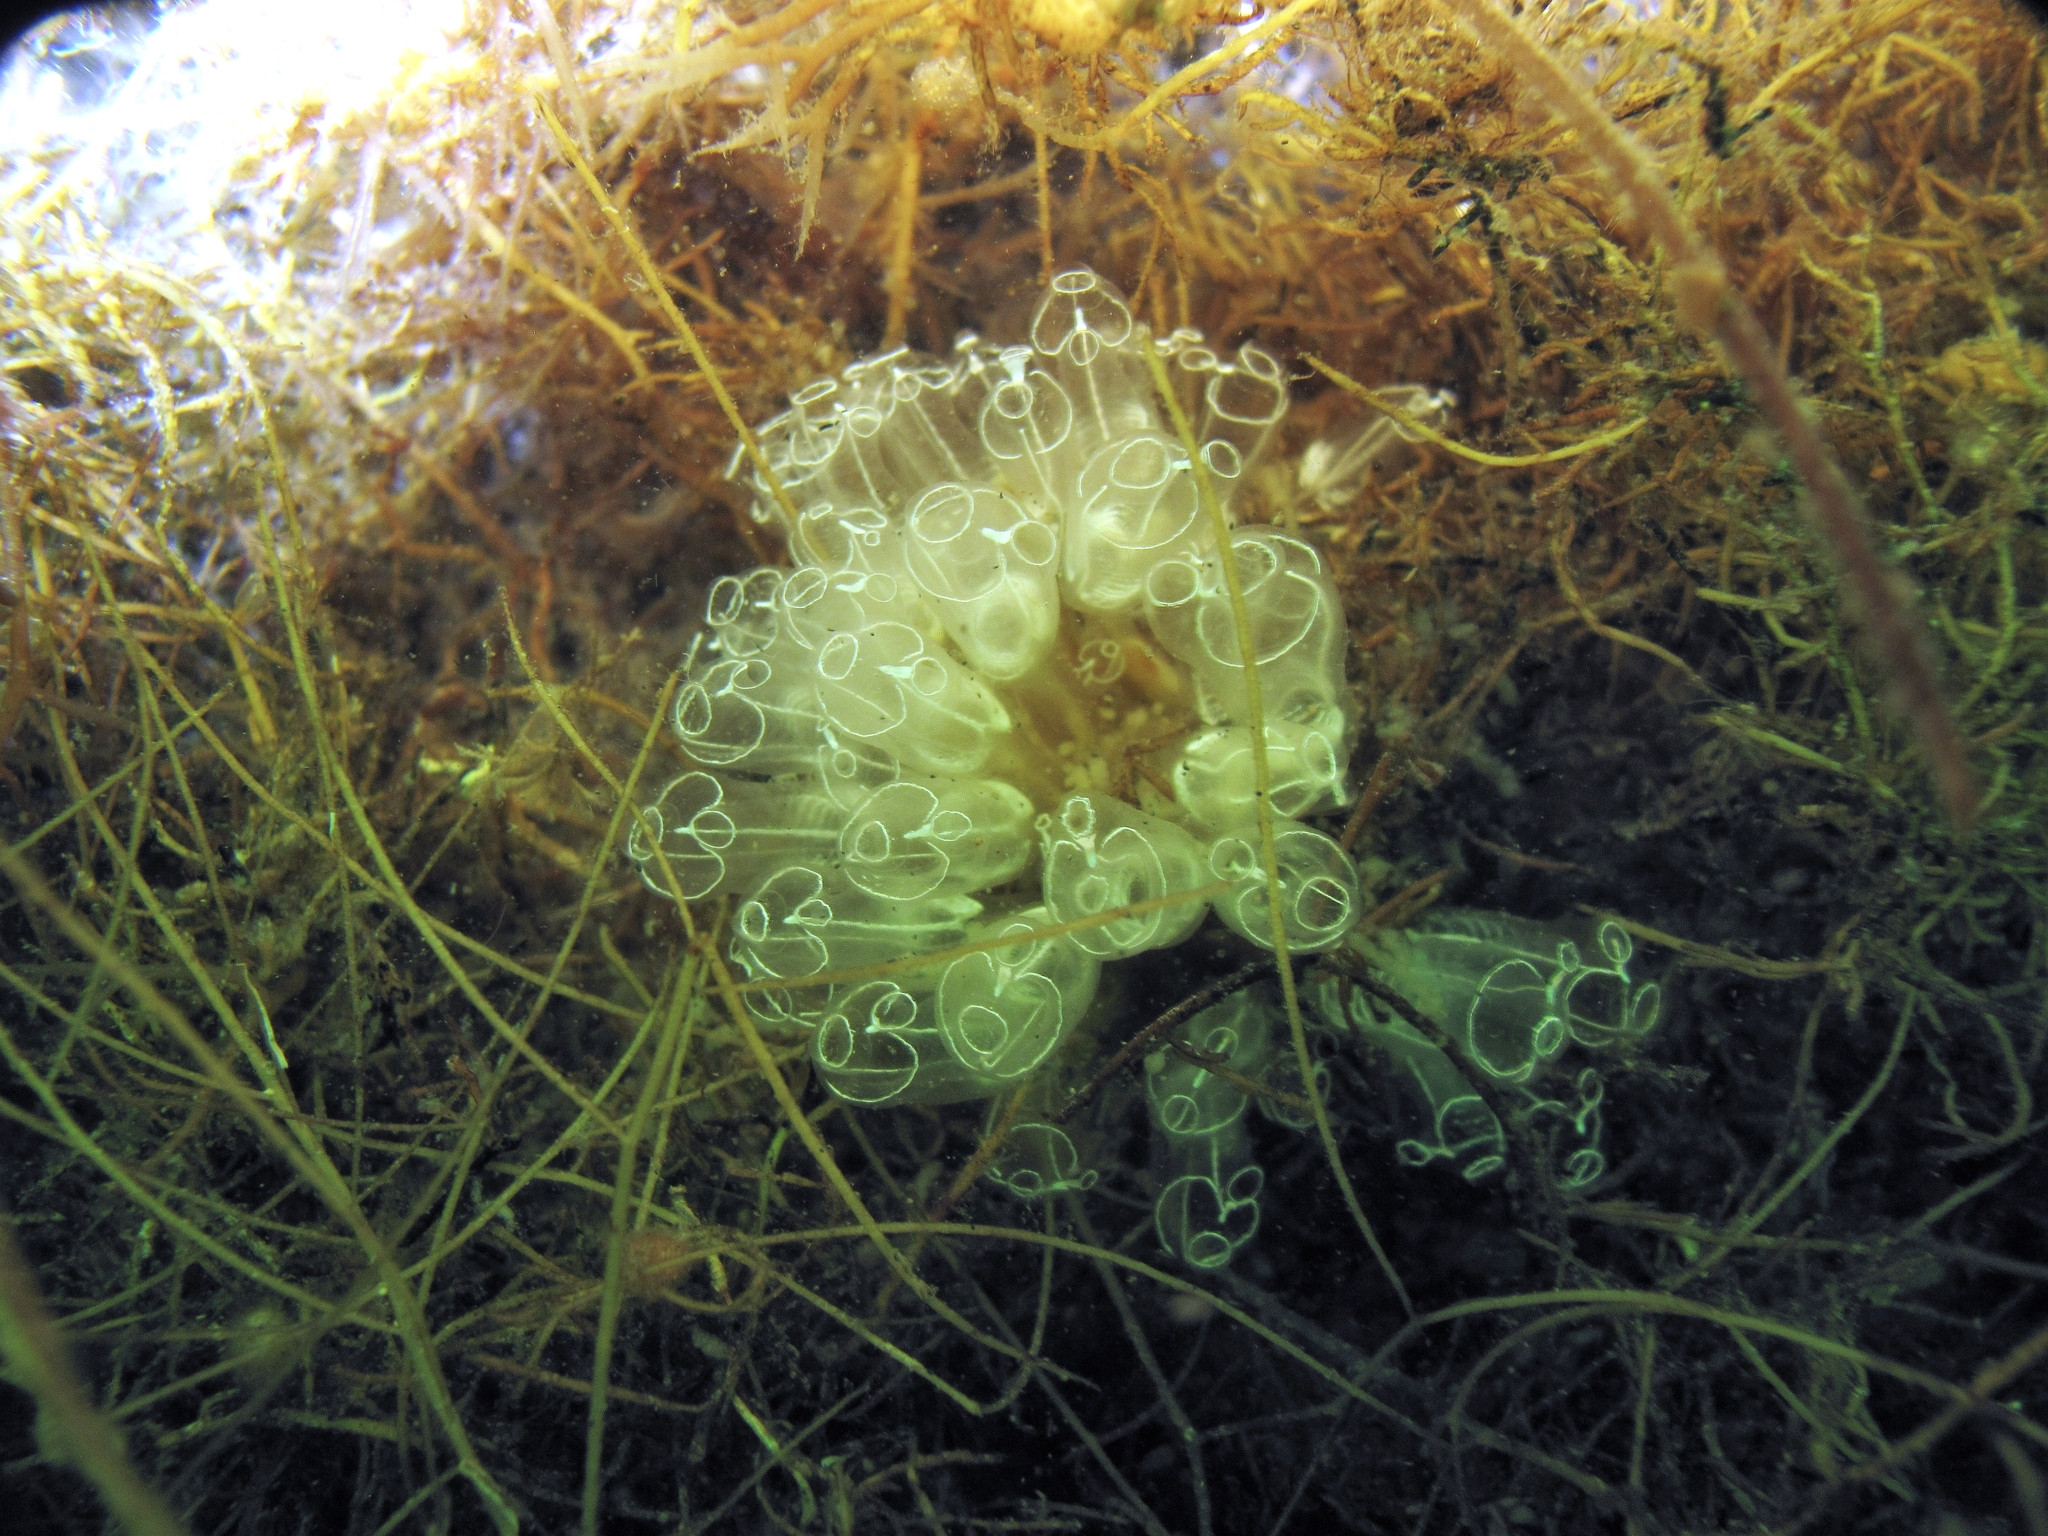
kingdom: Animalia
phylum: Chordata
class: Ascidiacea
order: Aplousobranchia
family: Clavelinidae
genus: Clavelina
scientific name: Clavelina lepadiformis
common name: Light bulb tunicate
